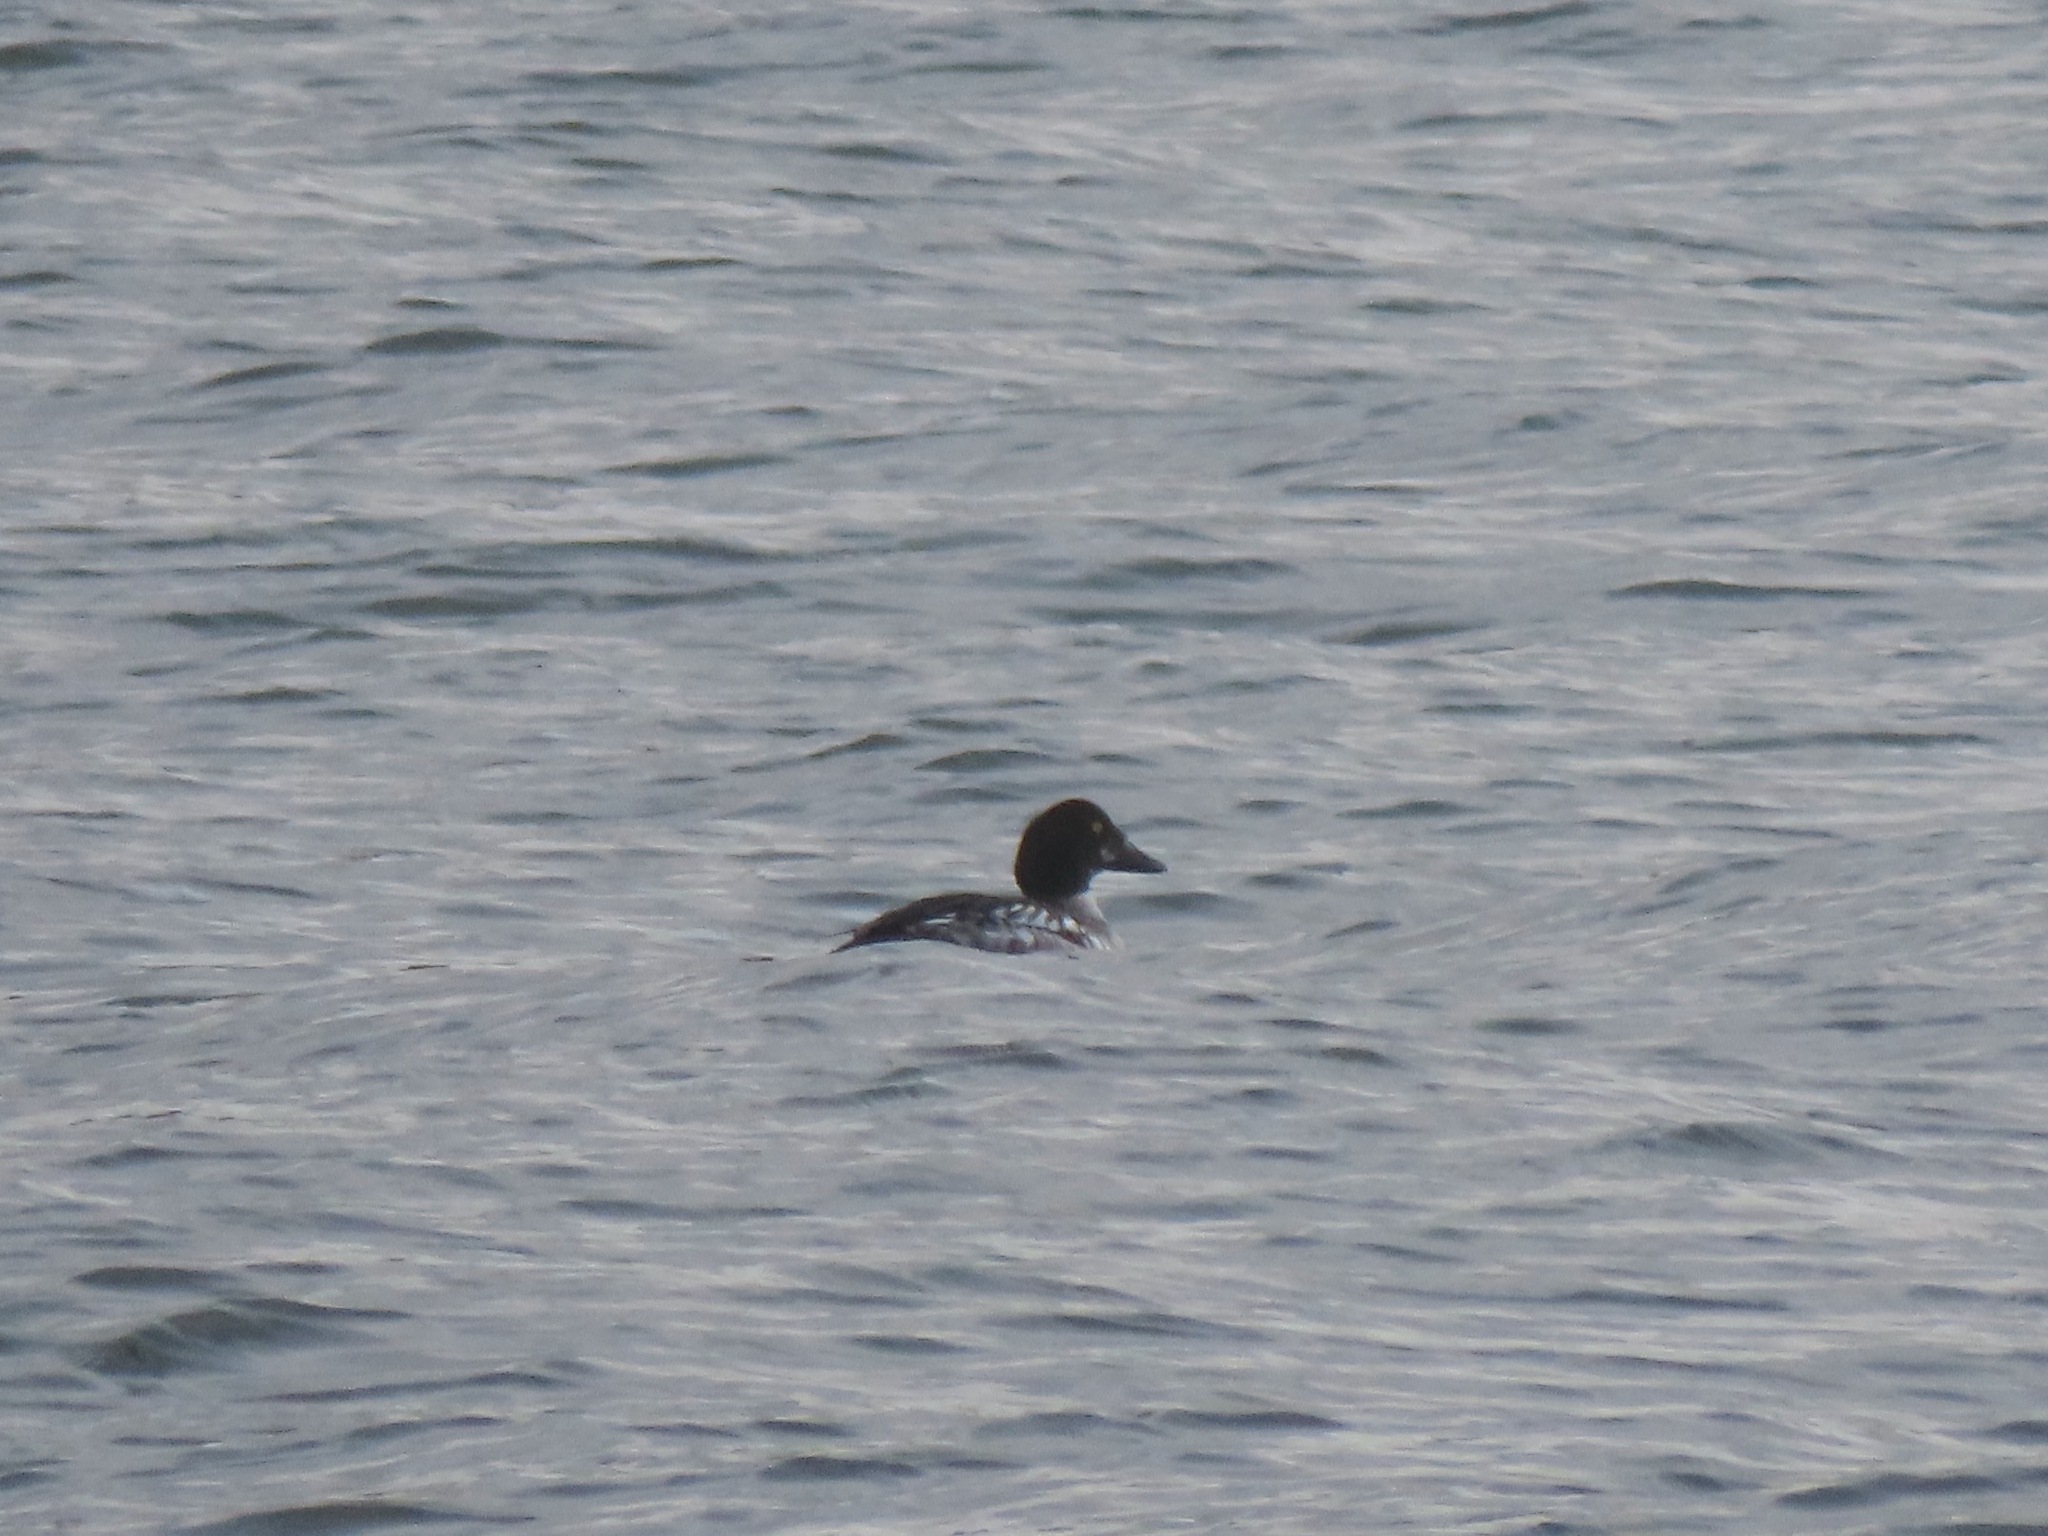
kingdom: Animalia
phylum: Chordata
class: Aves
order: Anseriformes
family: Anatidae
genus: Bucephala
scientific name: Bucephala clangula
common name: Common goldeneye
